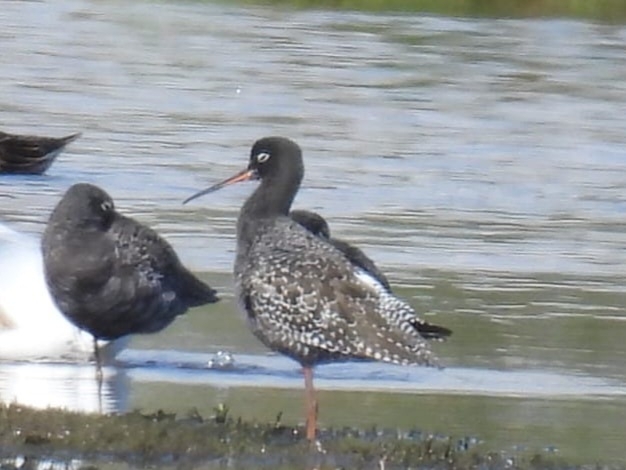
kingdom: Animalia
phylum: Chordata
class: Aves
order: Charadriiformes
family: Scolopacidae
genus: Tringa
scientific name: Tringa erythropus
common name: Spotted redshank
